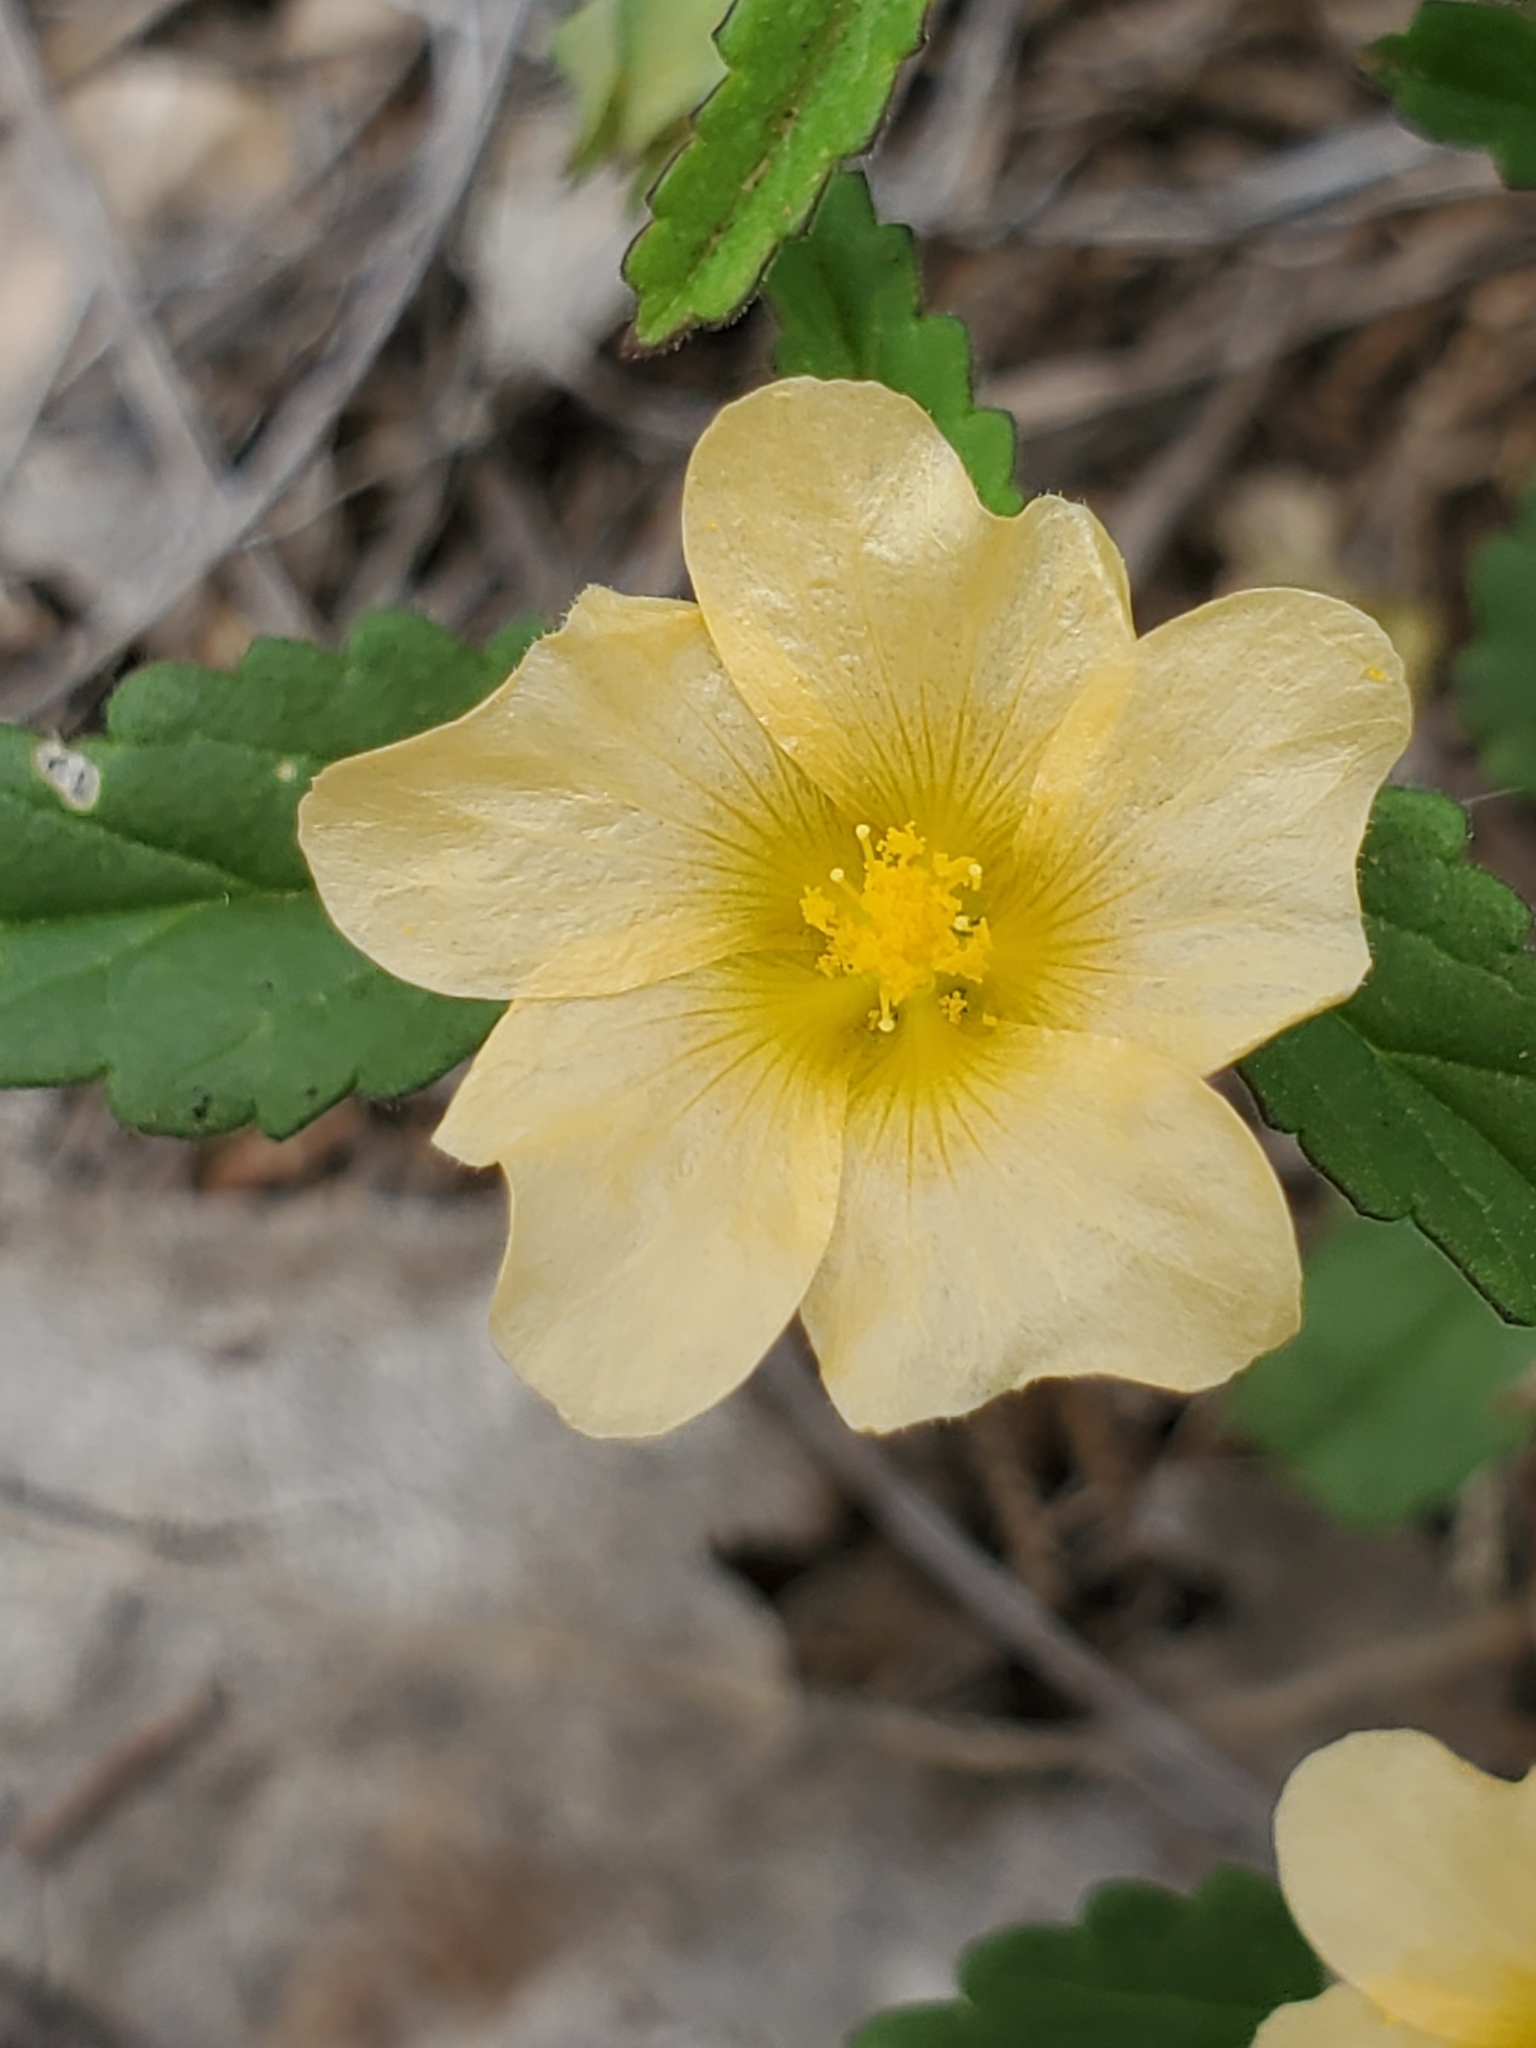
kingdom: Plantae
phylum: Tracheophyta
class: Magnoliopsida
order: Malvales
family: Malvaceae
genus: Sida
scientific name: Sida abutilifolia
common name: Spreading fanpetals
